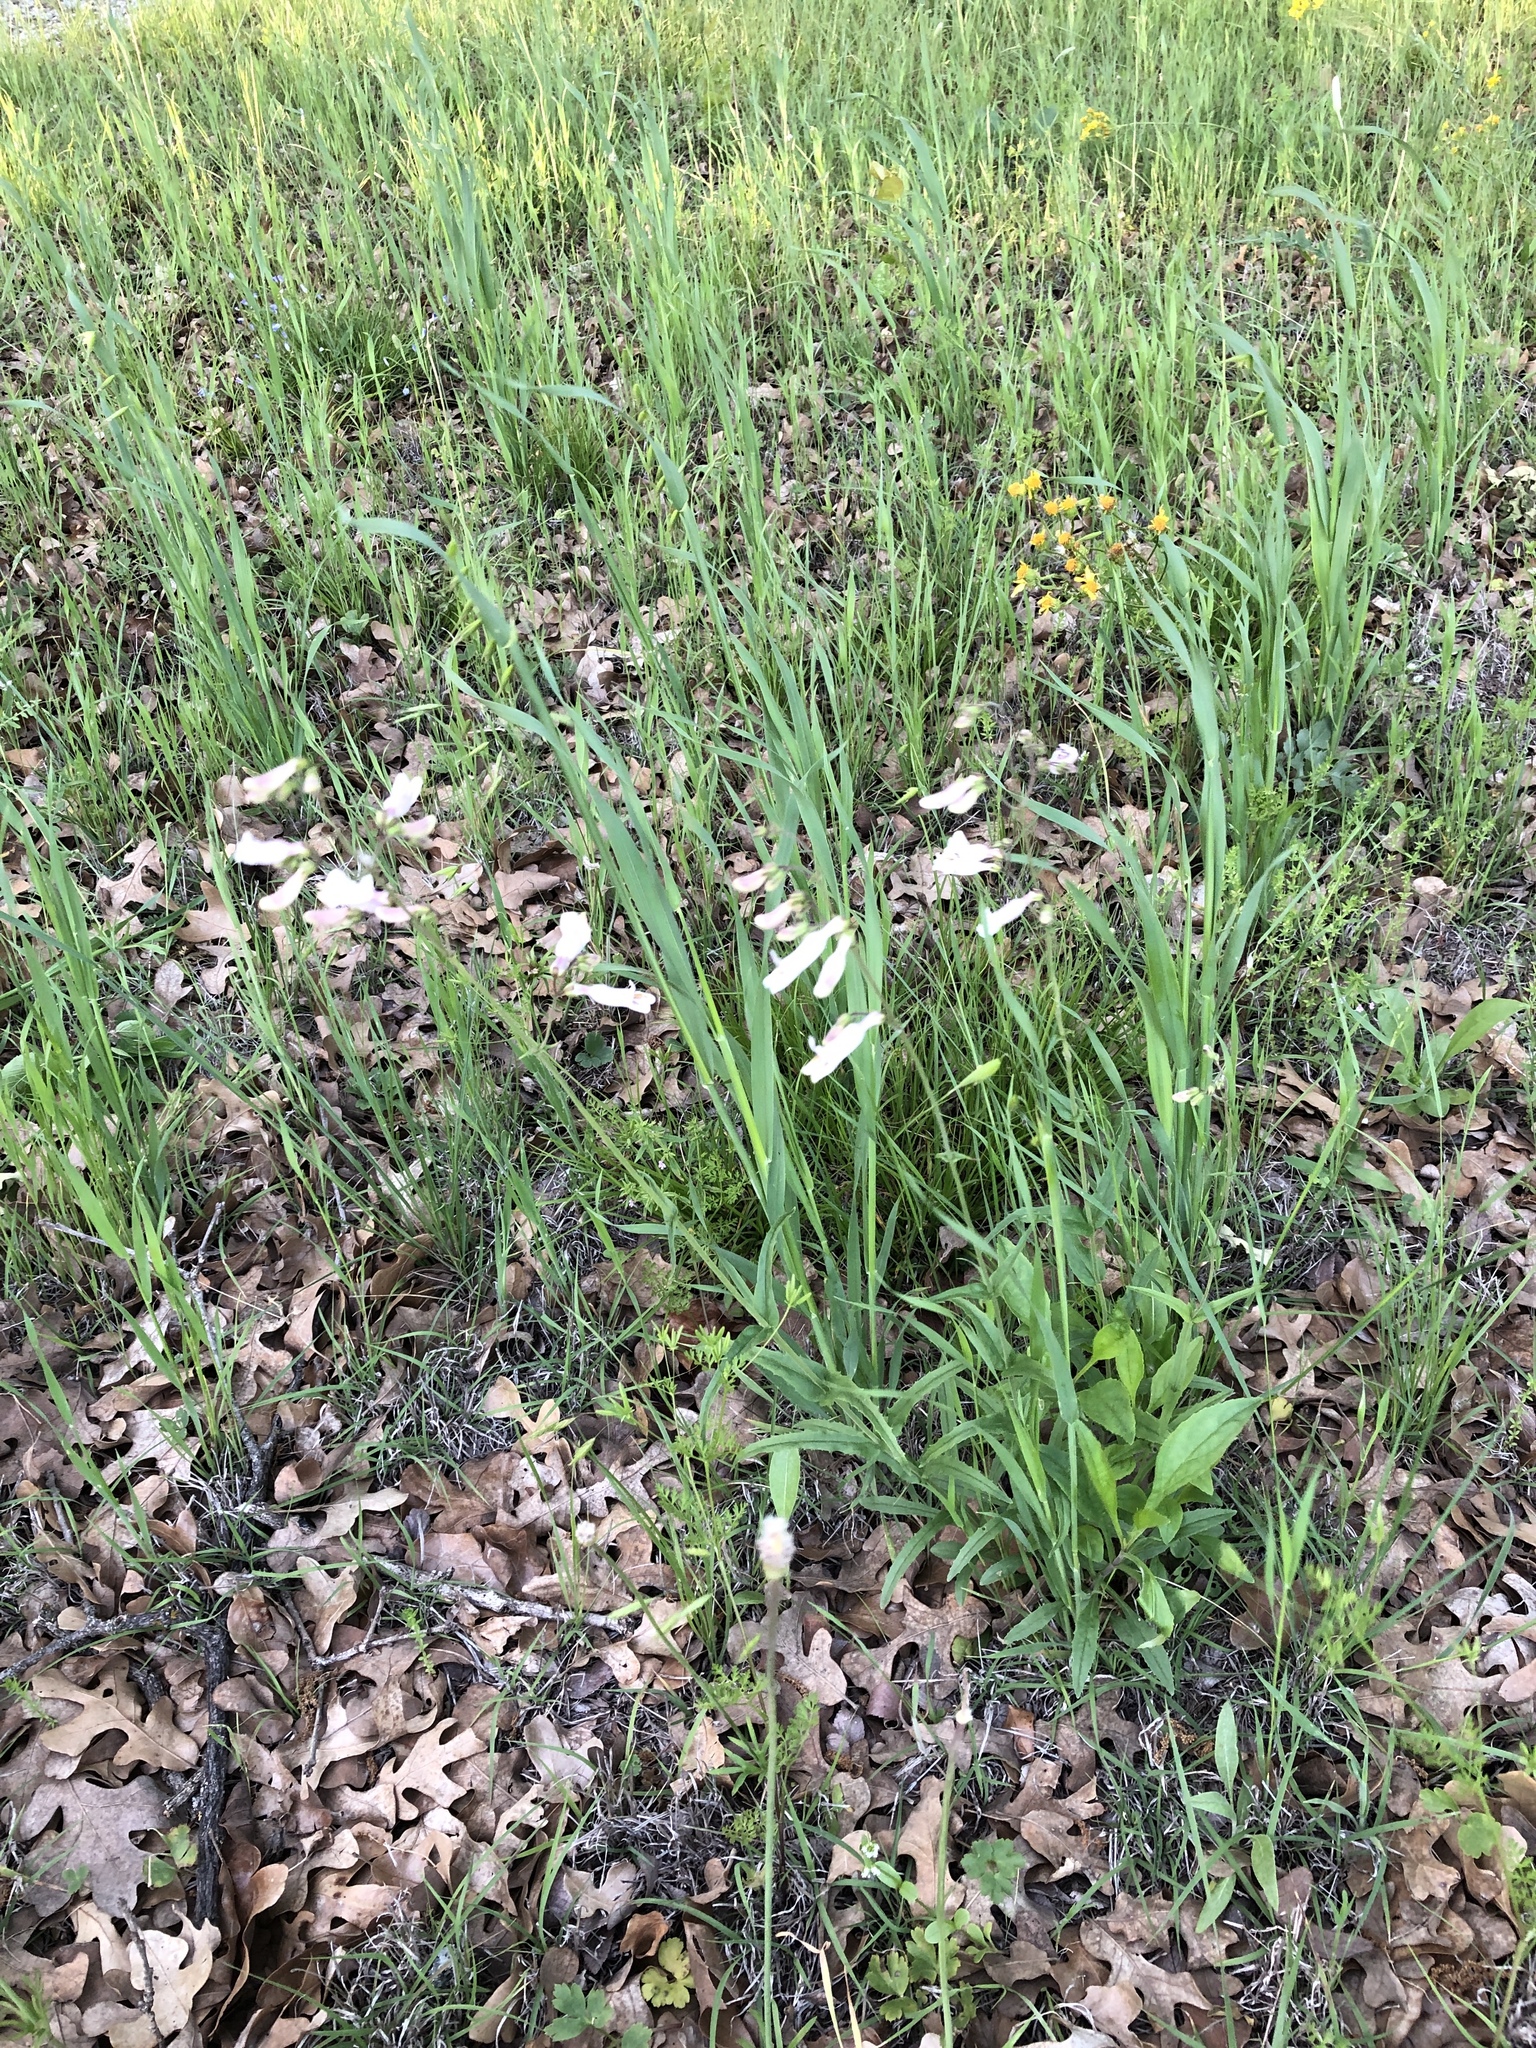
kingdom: Plantae
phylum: Tracheophyta
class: Magnoliopsida
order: Lamiales
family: Plantaginaceae
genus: Penstemon
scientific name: Penstemon laxiflorus
